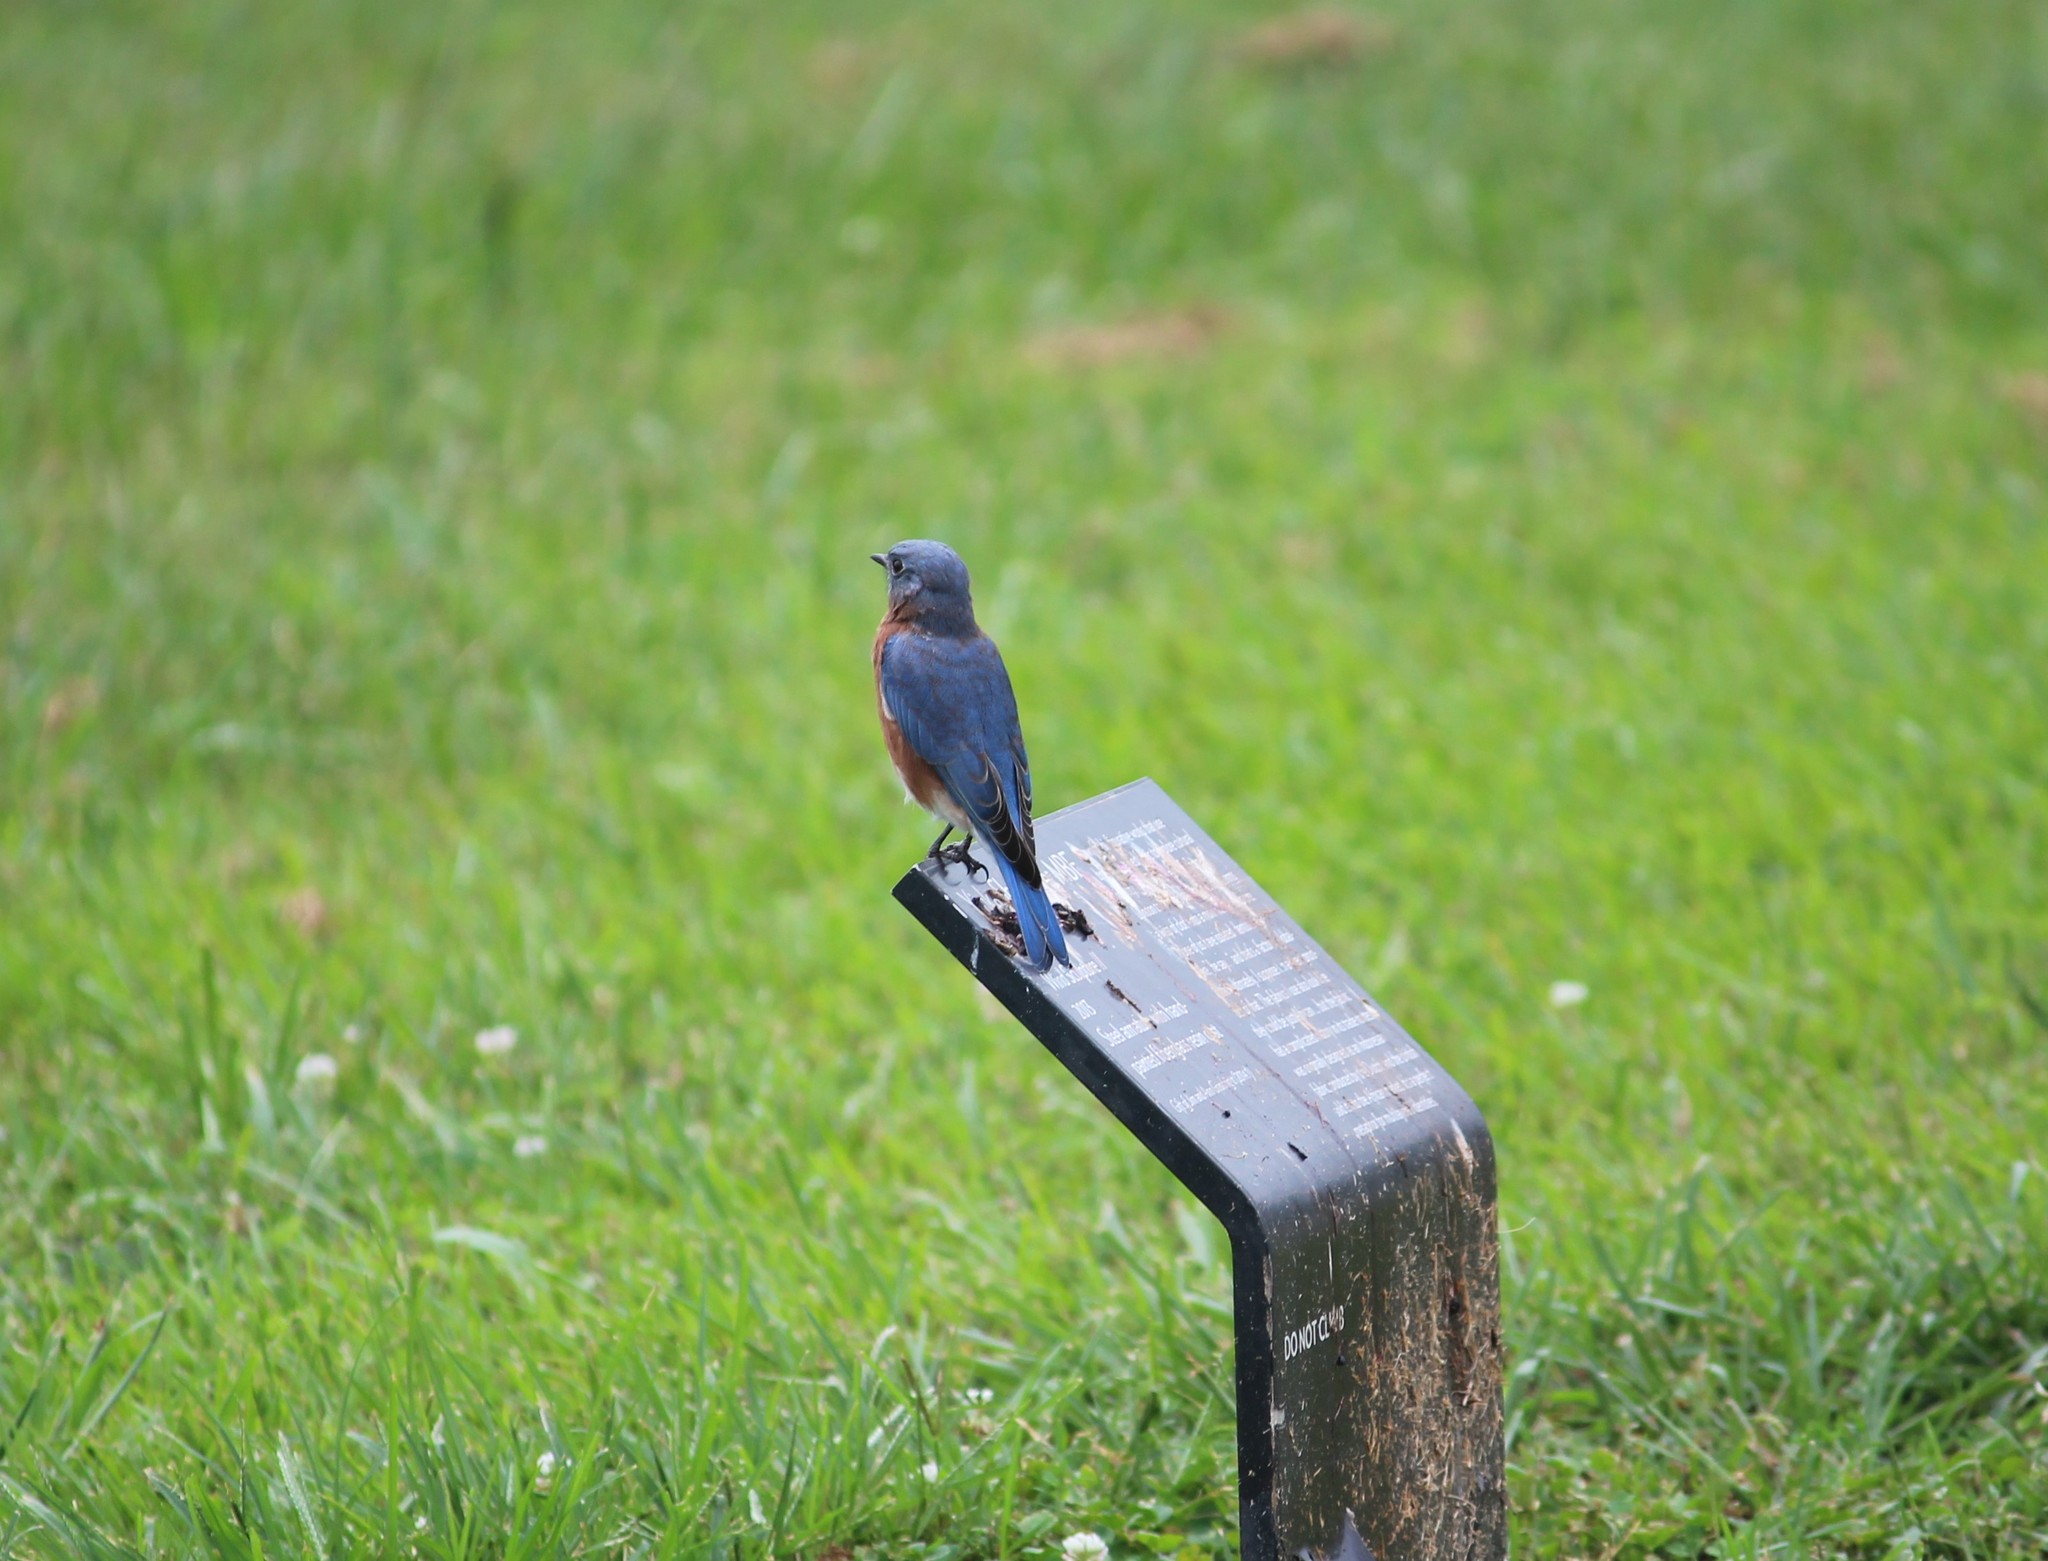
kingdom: Animalia
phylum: Chordata
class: Aves
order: Passeriformes
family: Turdidae
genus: Sialia
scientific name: Sialia sialis
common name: Eastern bluebird
